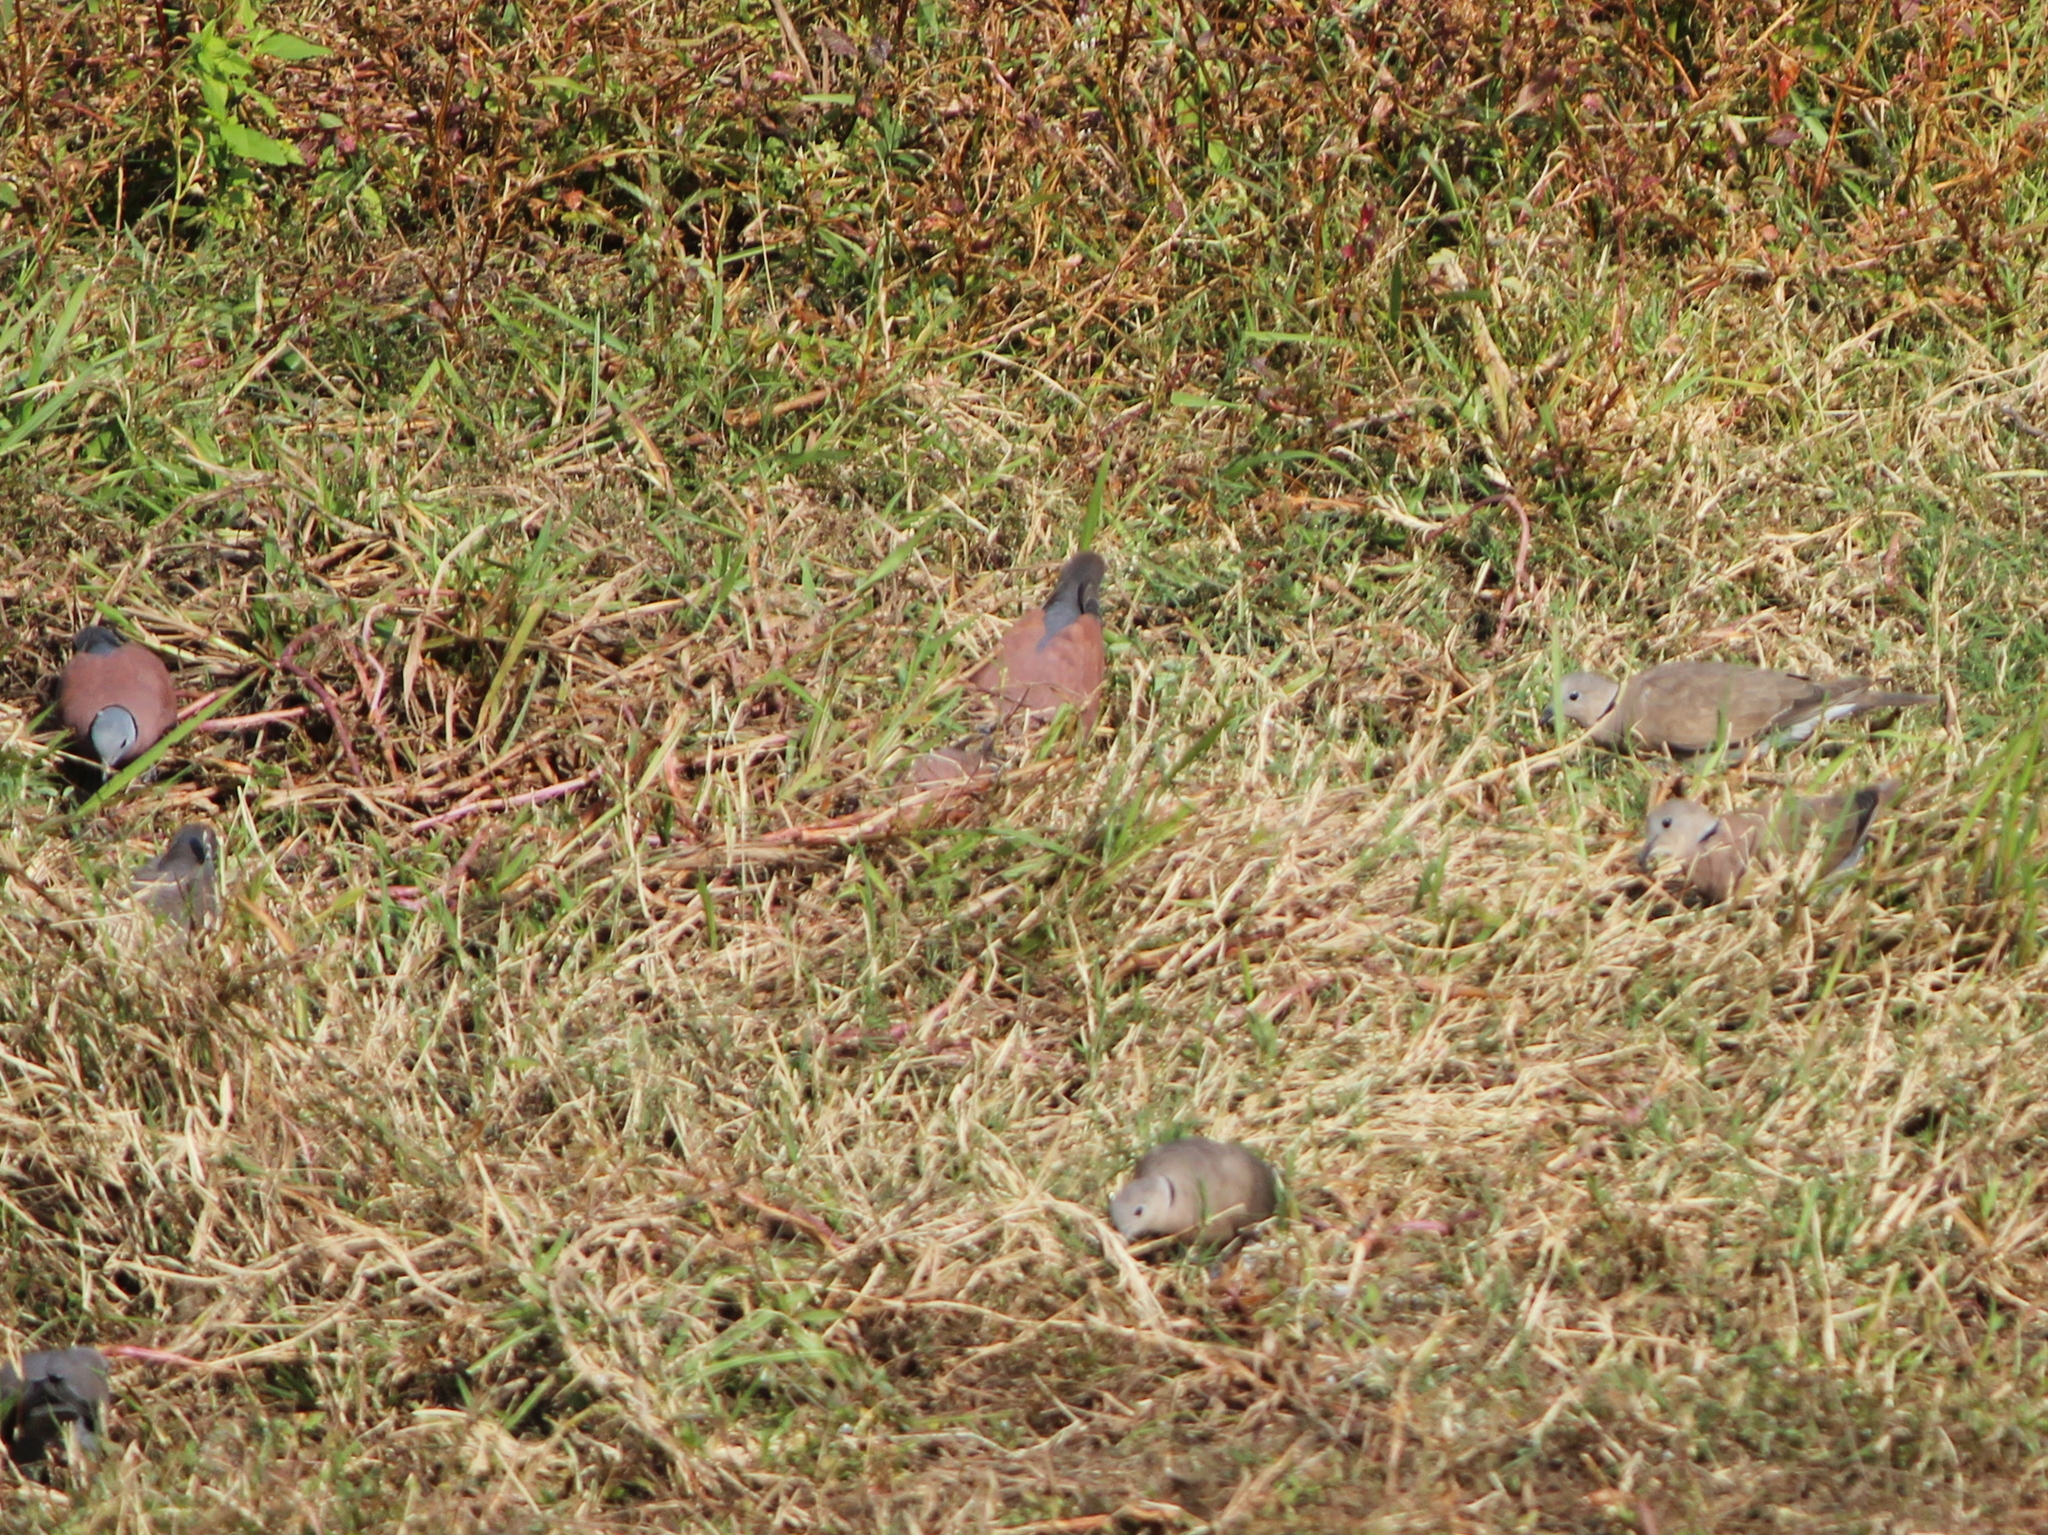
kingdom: Animalia
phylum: Chordata
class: Aves
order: Columbiformes
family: Columbidae
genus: Streptopelia
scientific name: Streptopelia tranquebarica
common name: Red turtle dove
